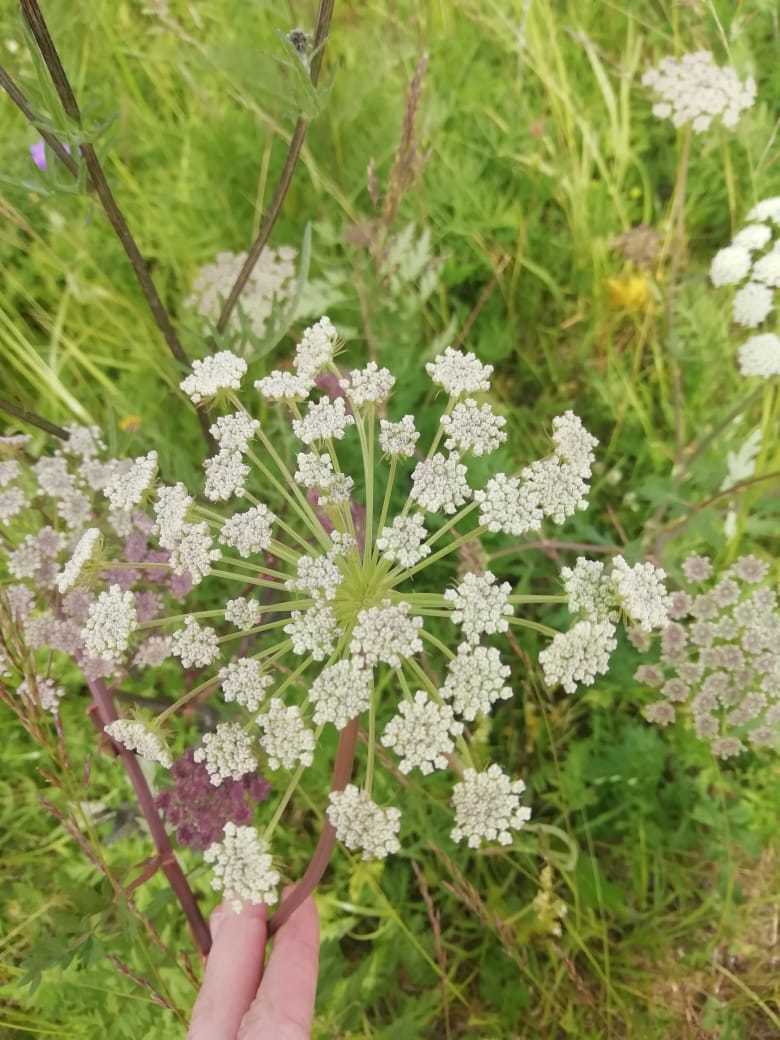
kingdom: Plantae
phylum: Tracheophyta
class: Magnoliopsida
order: Apiales
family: Apiaceae
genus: Seseli
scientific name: Seseli libanotis
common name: Mooncarrot
